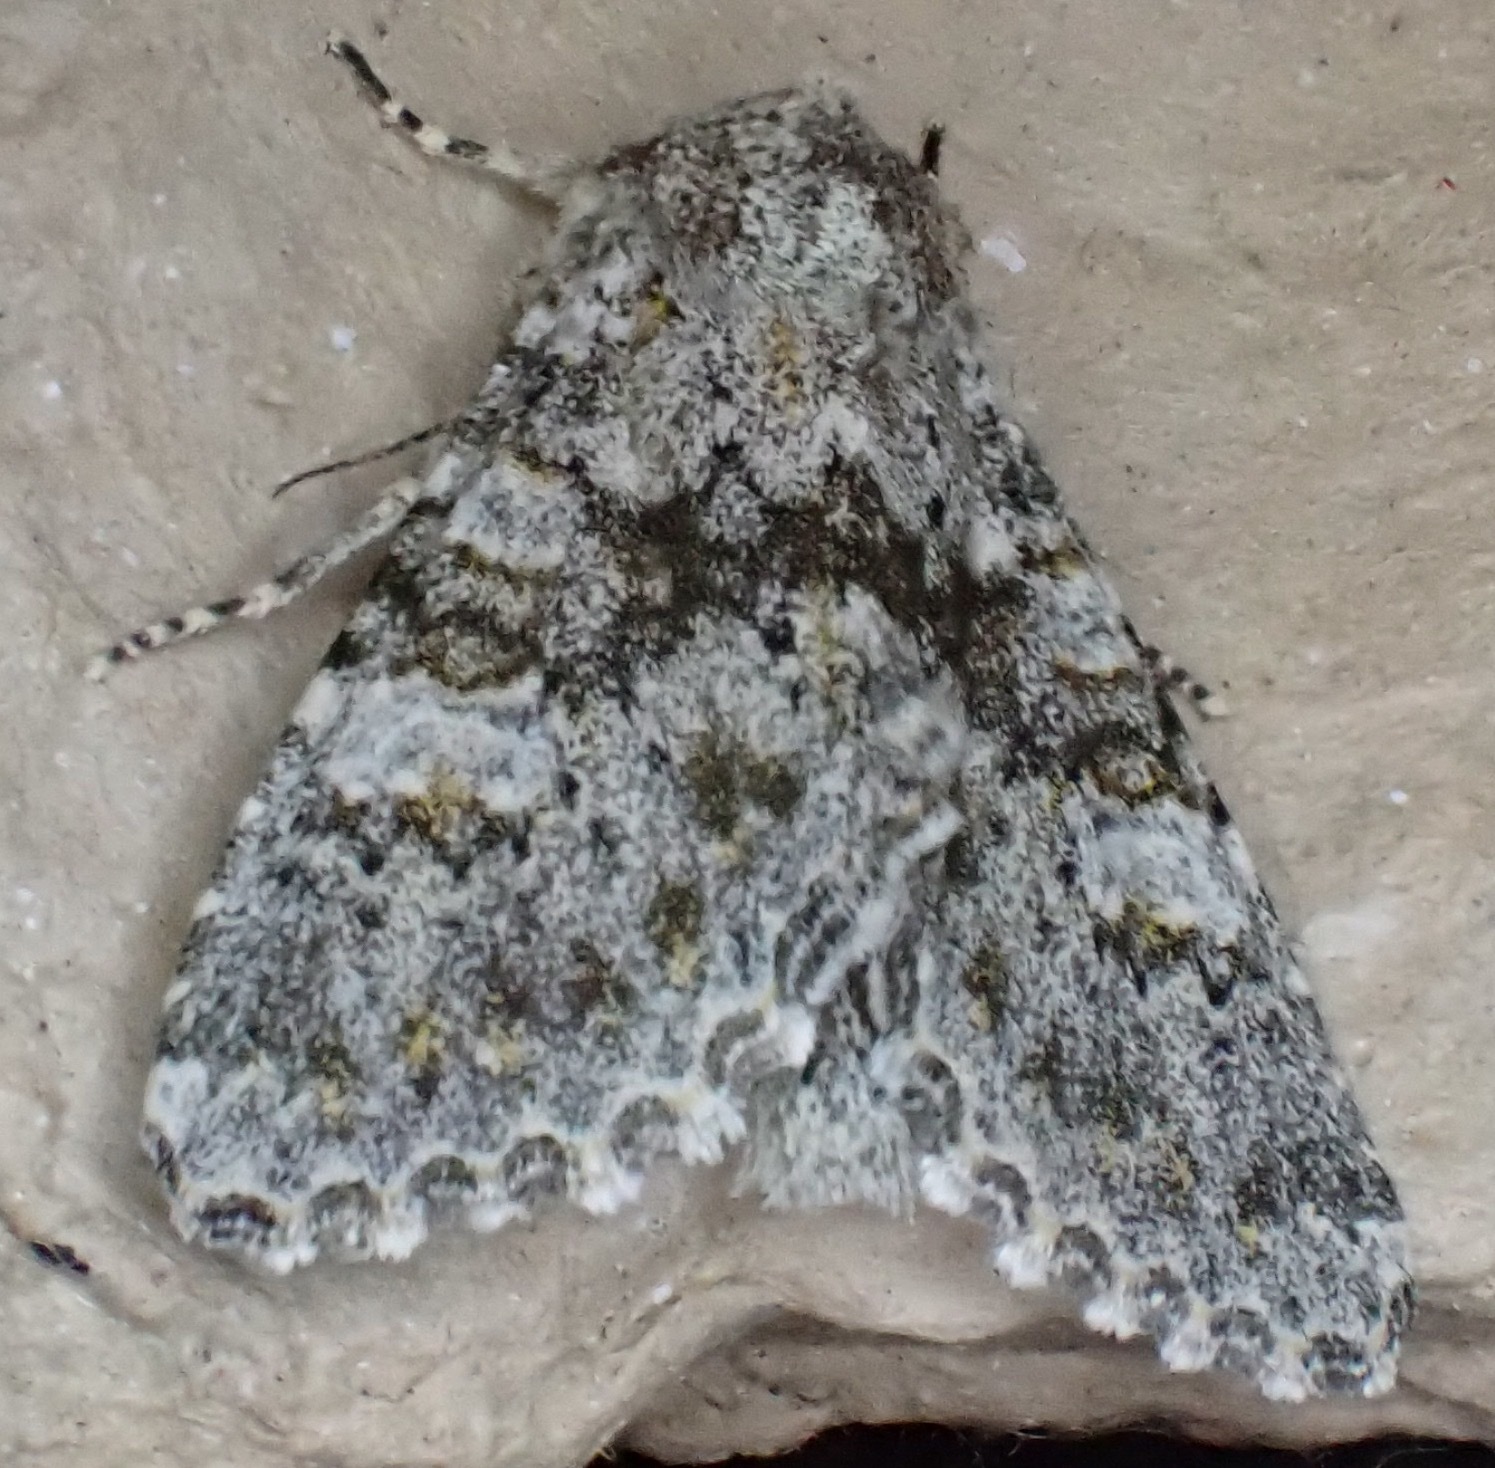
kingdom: Animalia
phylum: Arthropoda
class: Insecta
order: Lepidoptera
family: Noctuidae
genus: Polymixis
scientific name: Polymixis flavicincta
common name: Large ranunculus
